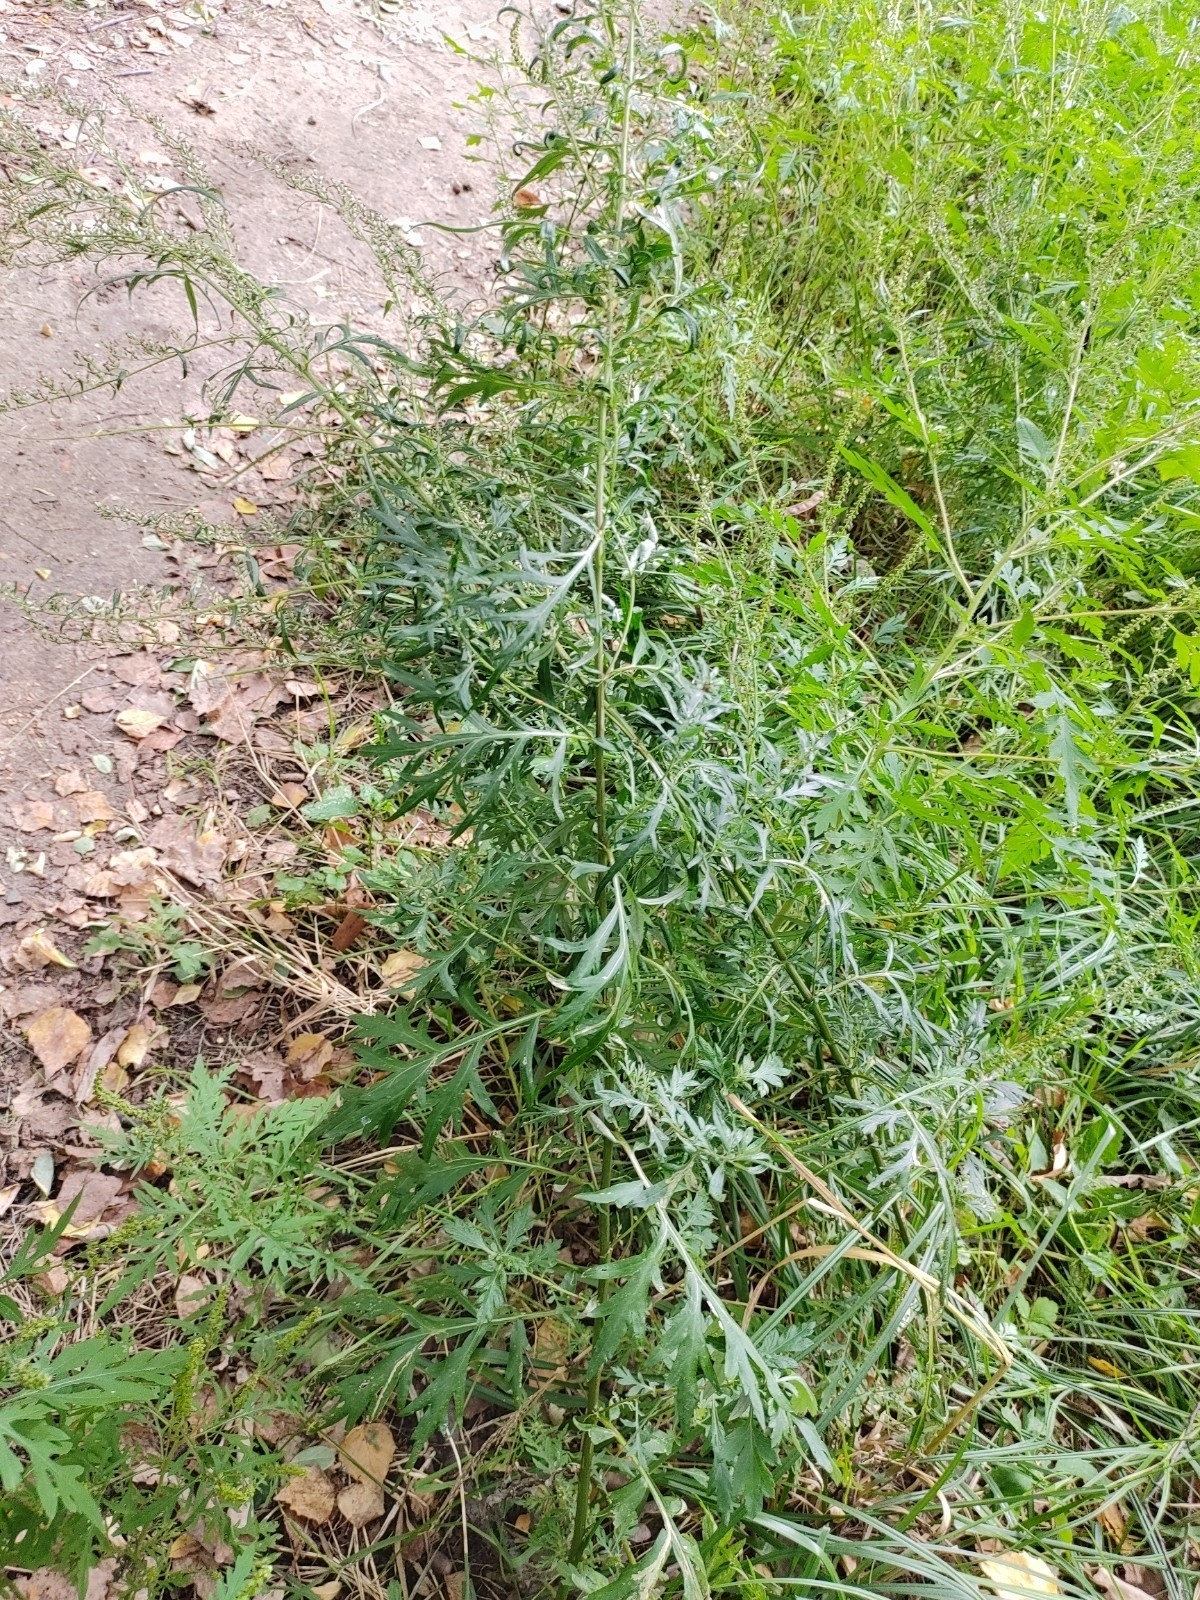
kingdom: Plantae
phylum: Tracheophyta
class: Magnoliopsida
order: Asterales
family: Asteraceae
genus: Artemisia
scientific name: Artemisia vulgaris
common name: Mugwort
